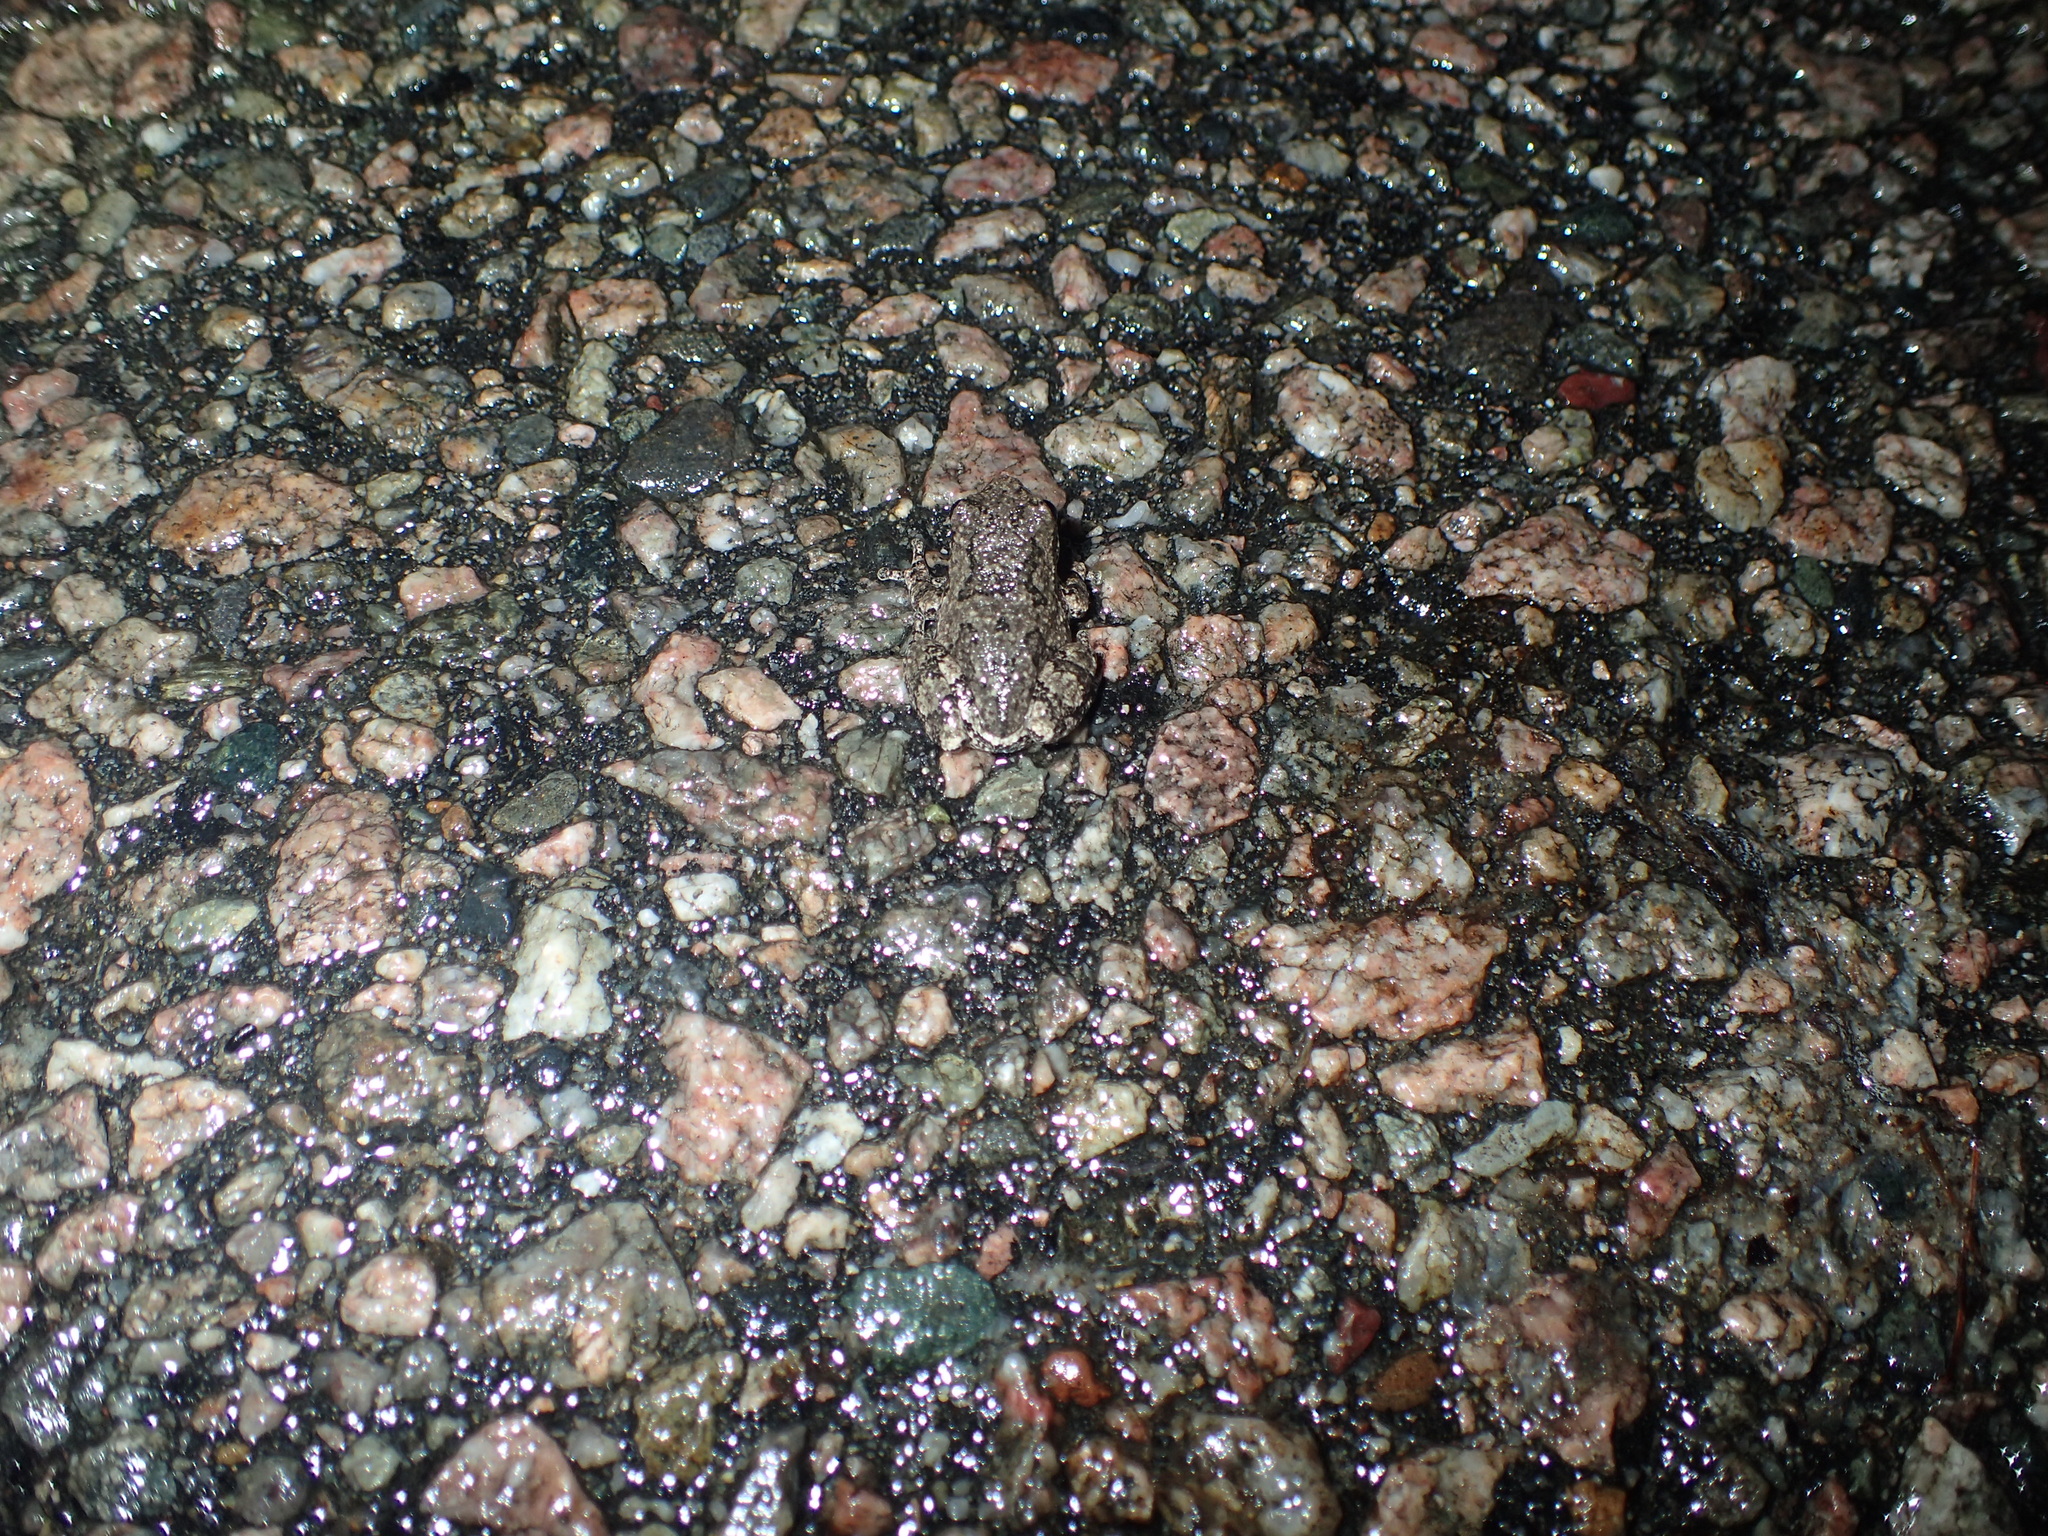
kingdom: Animalia
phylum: Chordata
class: Amphibia
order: Anura
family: Hylidae
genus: Dryophytes
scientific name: Dryophytes versicolor
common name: Gray treefrog
